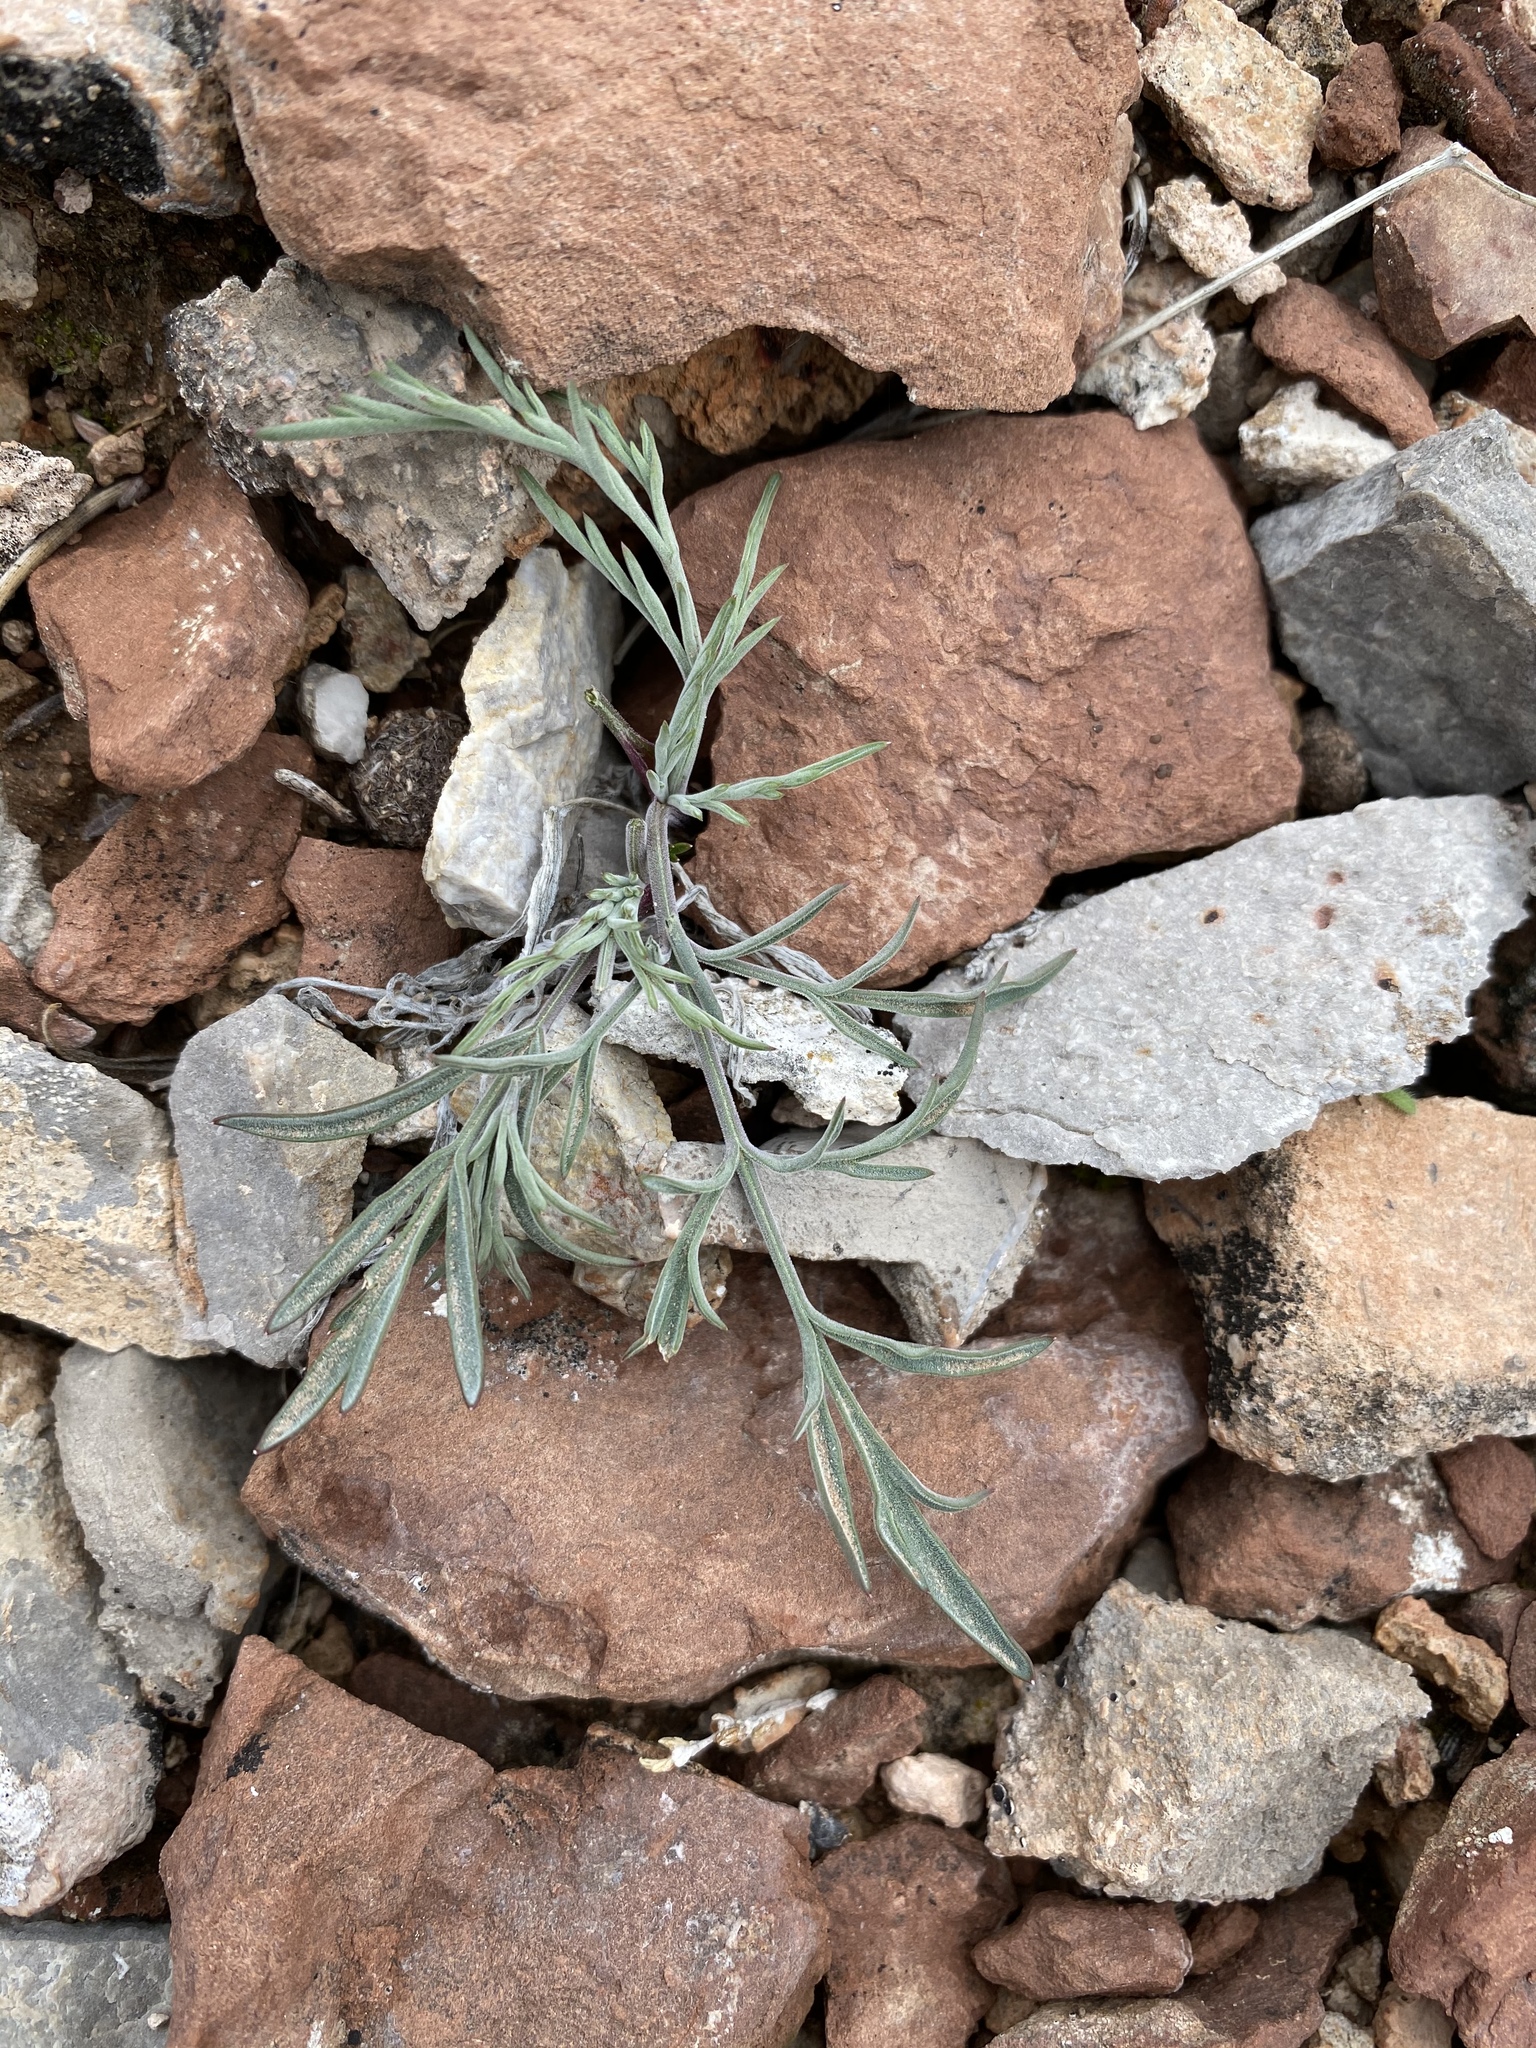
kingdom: Plantae
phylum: Tracheophyta
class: Magnoliopsida
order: Apiales
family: Apiaceae
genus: Lomatium
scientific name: Lomatium nevadense
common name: Nevada lomatium
